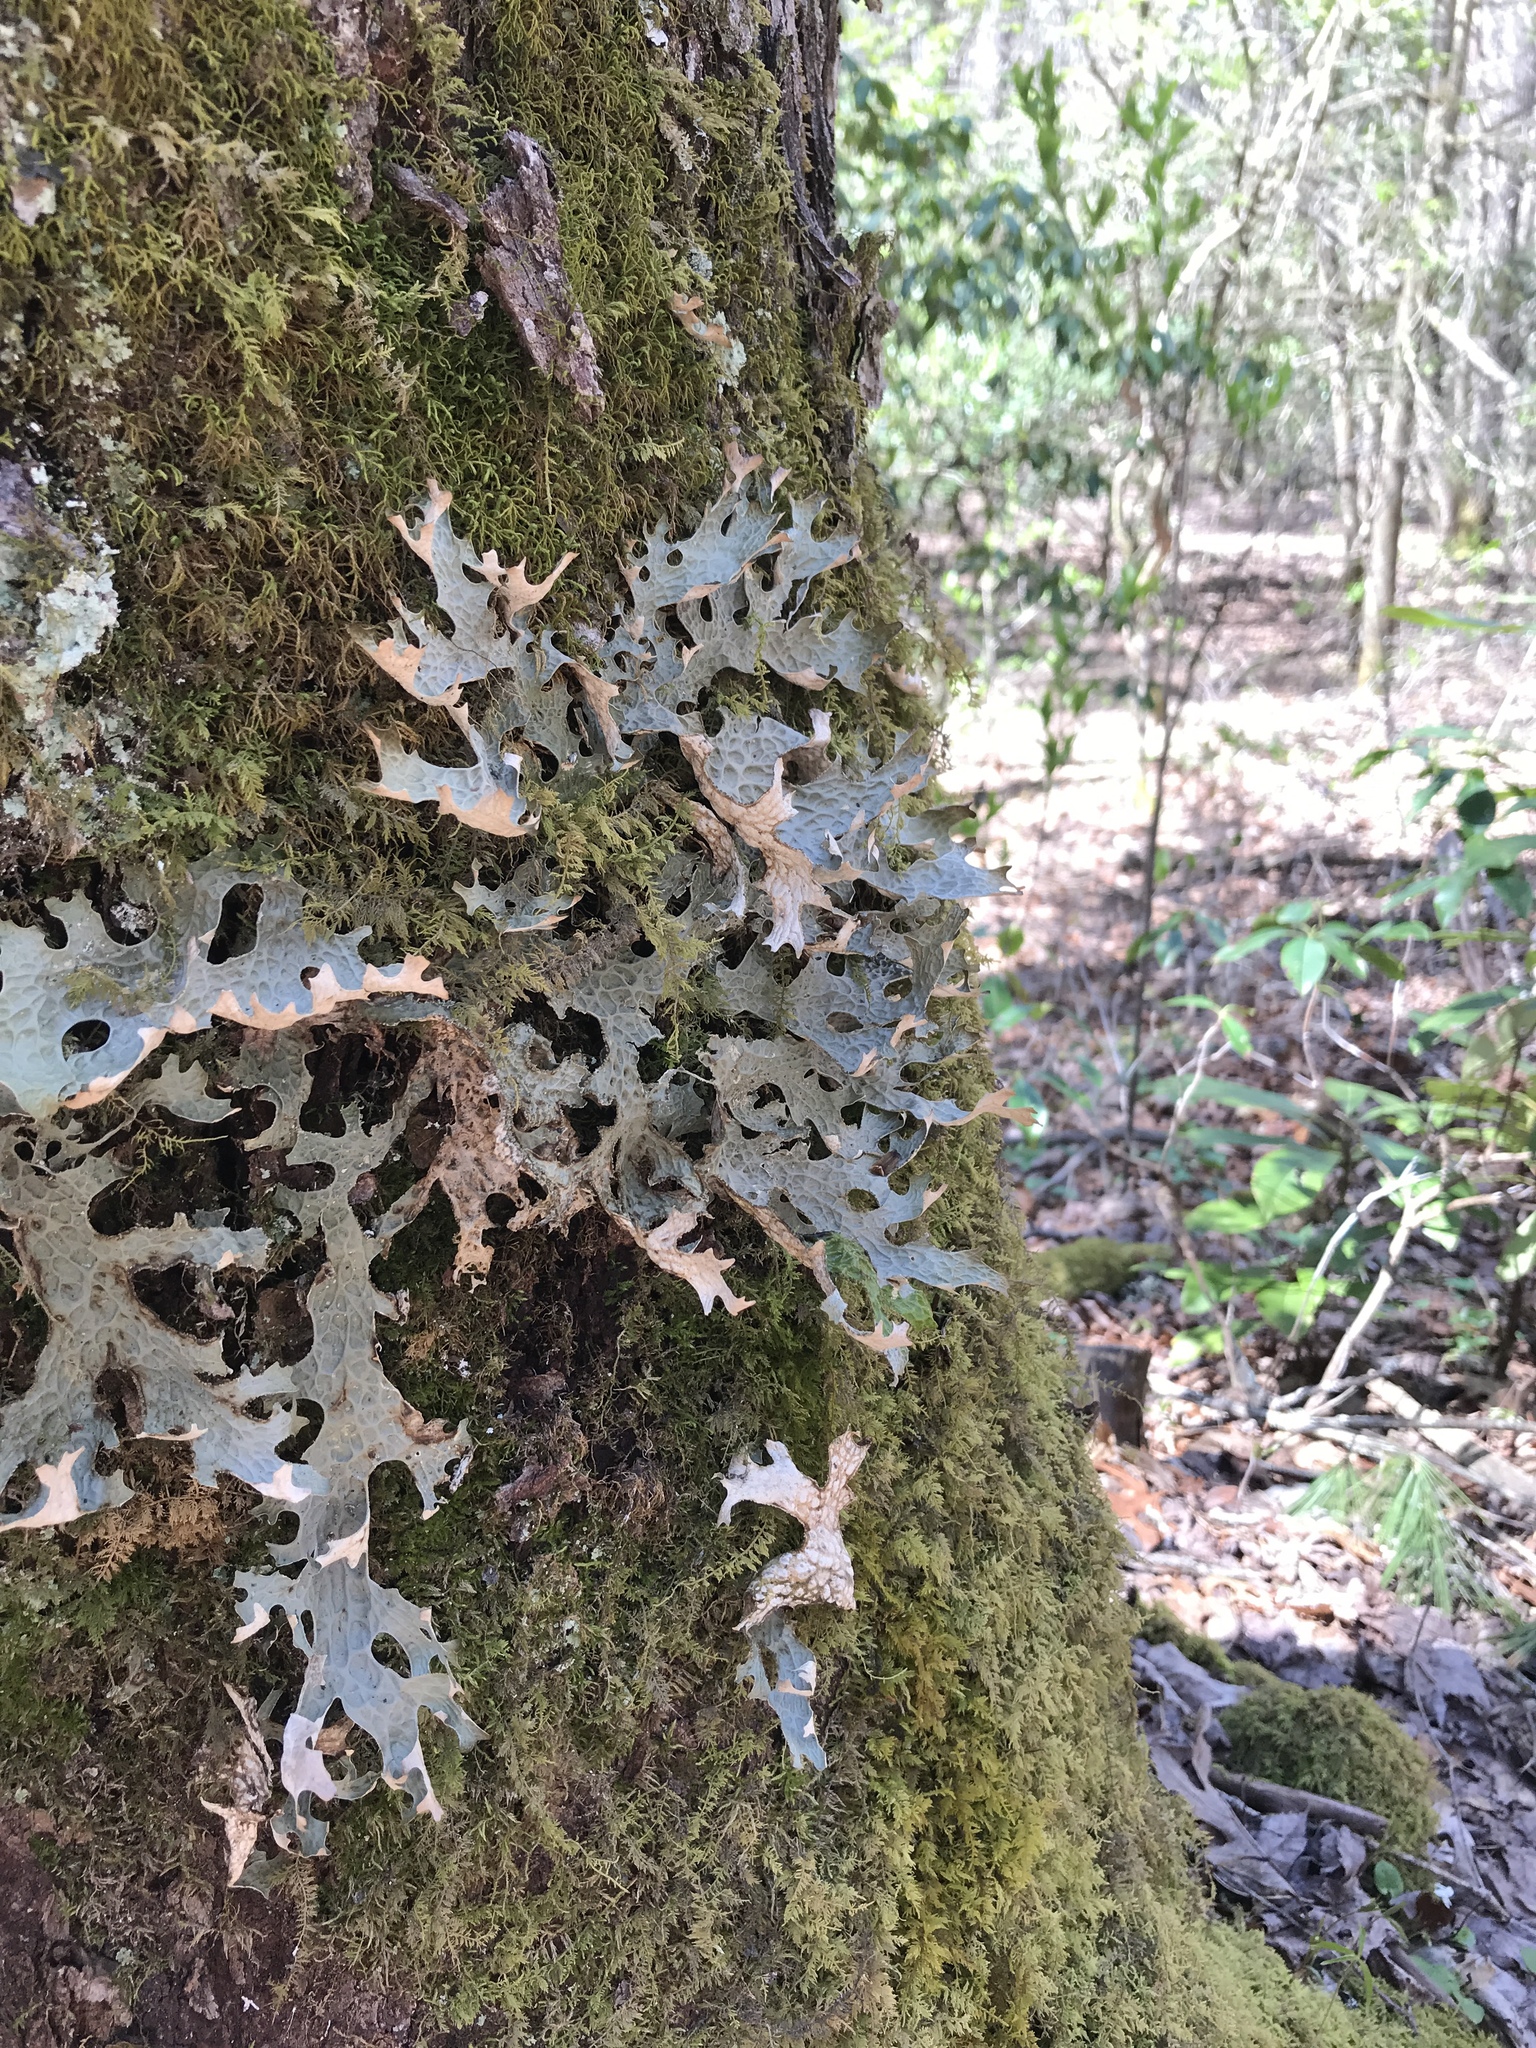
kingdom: Fungi
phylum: Ascomycota
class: Lecanoromycetes
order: Peltigerales
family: Lobariaceae
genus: Lobaria
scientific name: Lobaria pulmonaria
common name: Lungwort
